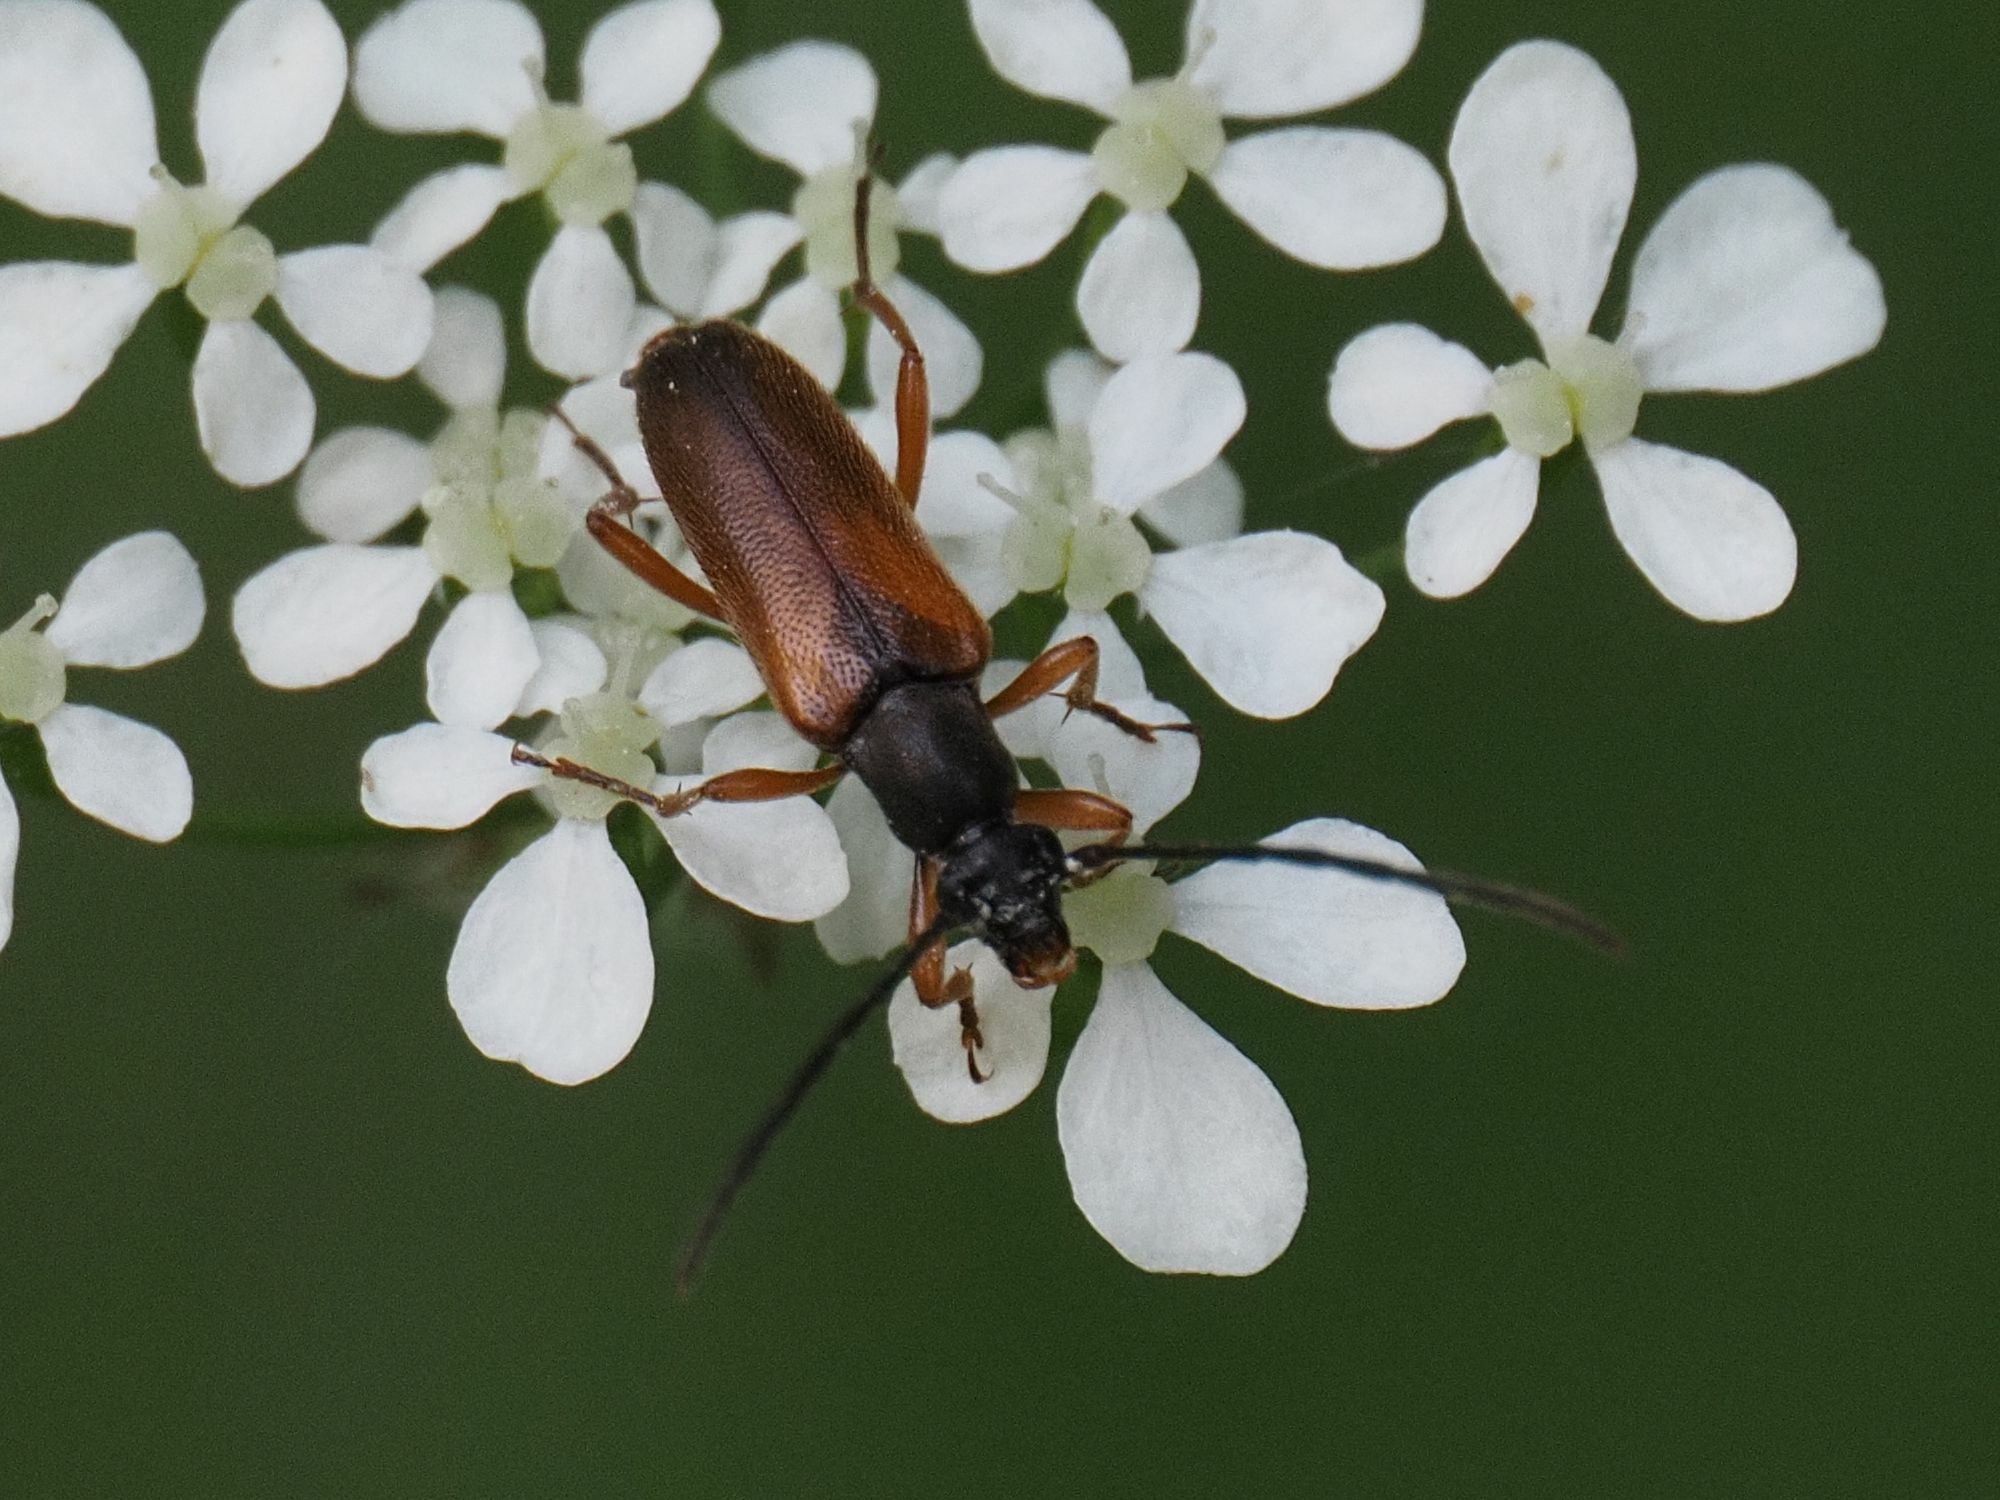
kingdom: Animalia
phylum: Arthropoda
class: Insecta
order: Coleoptera
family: Cerambycidae
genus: Alosterna
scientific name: Alosterna tabacicolor
